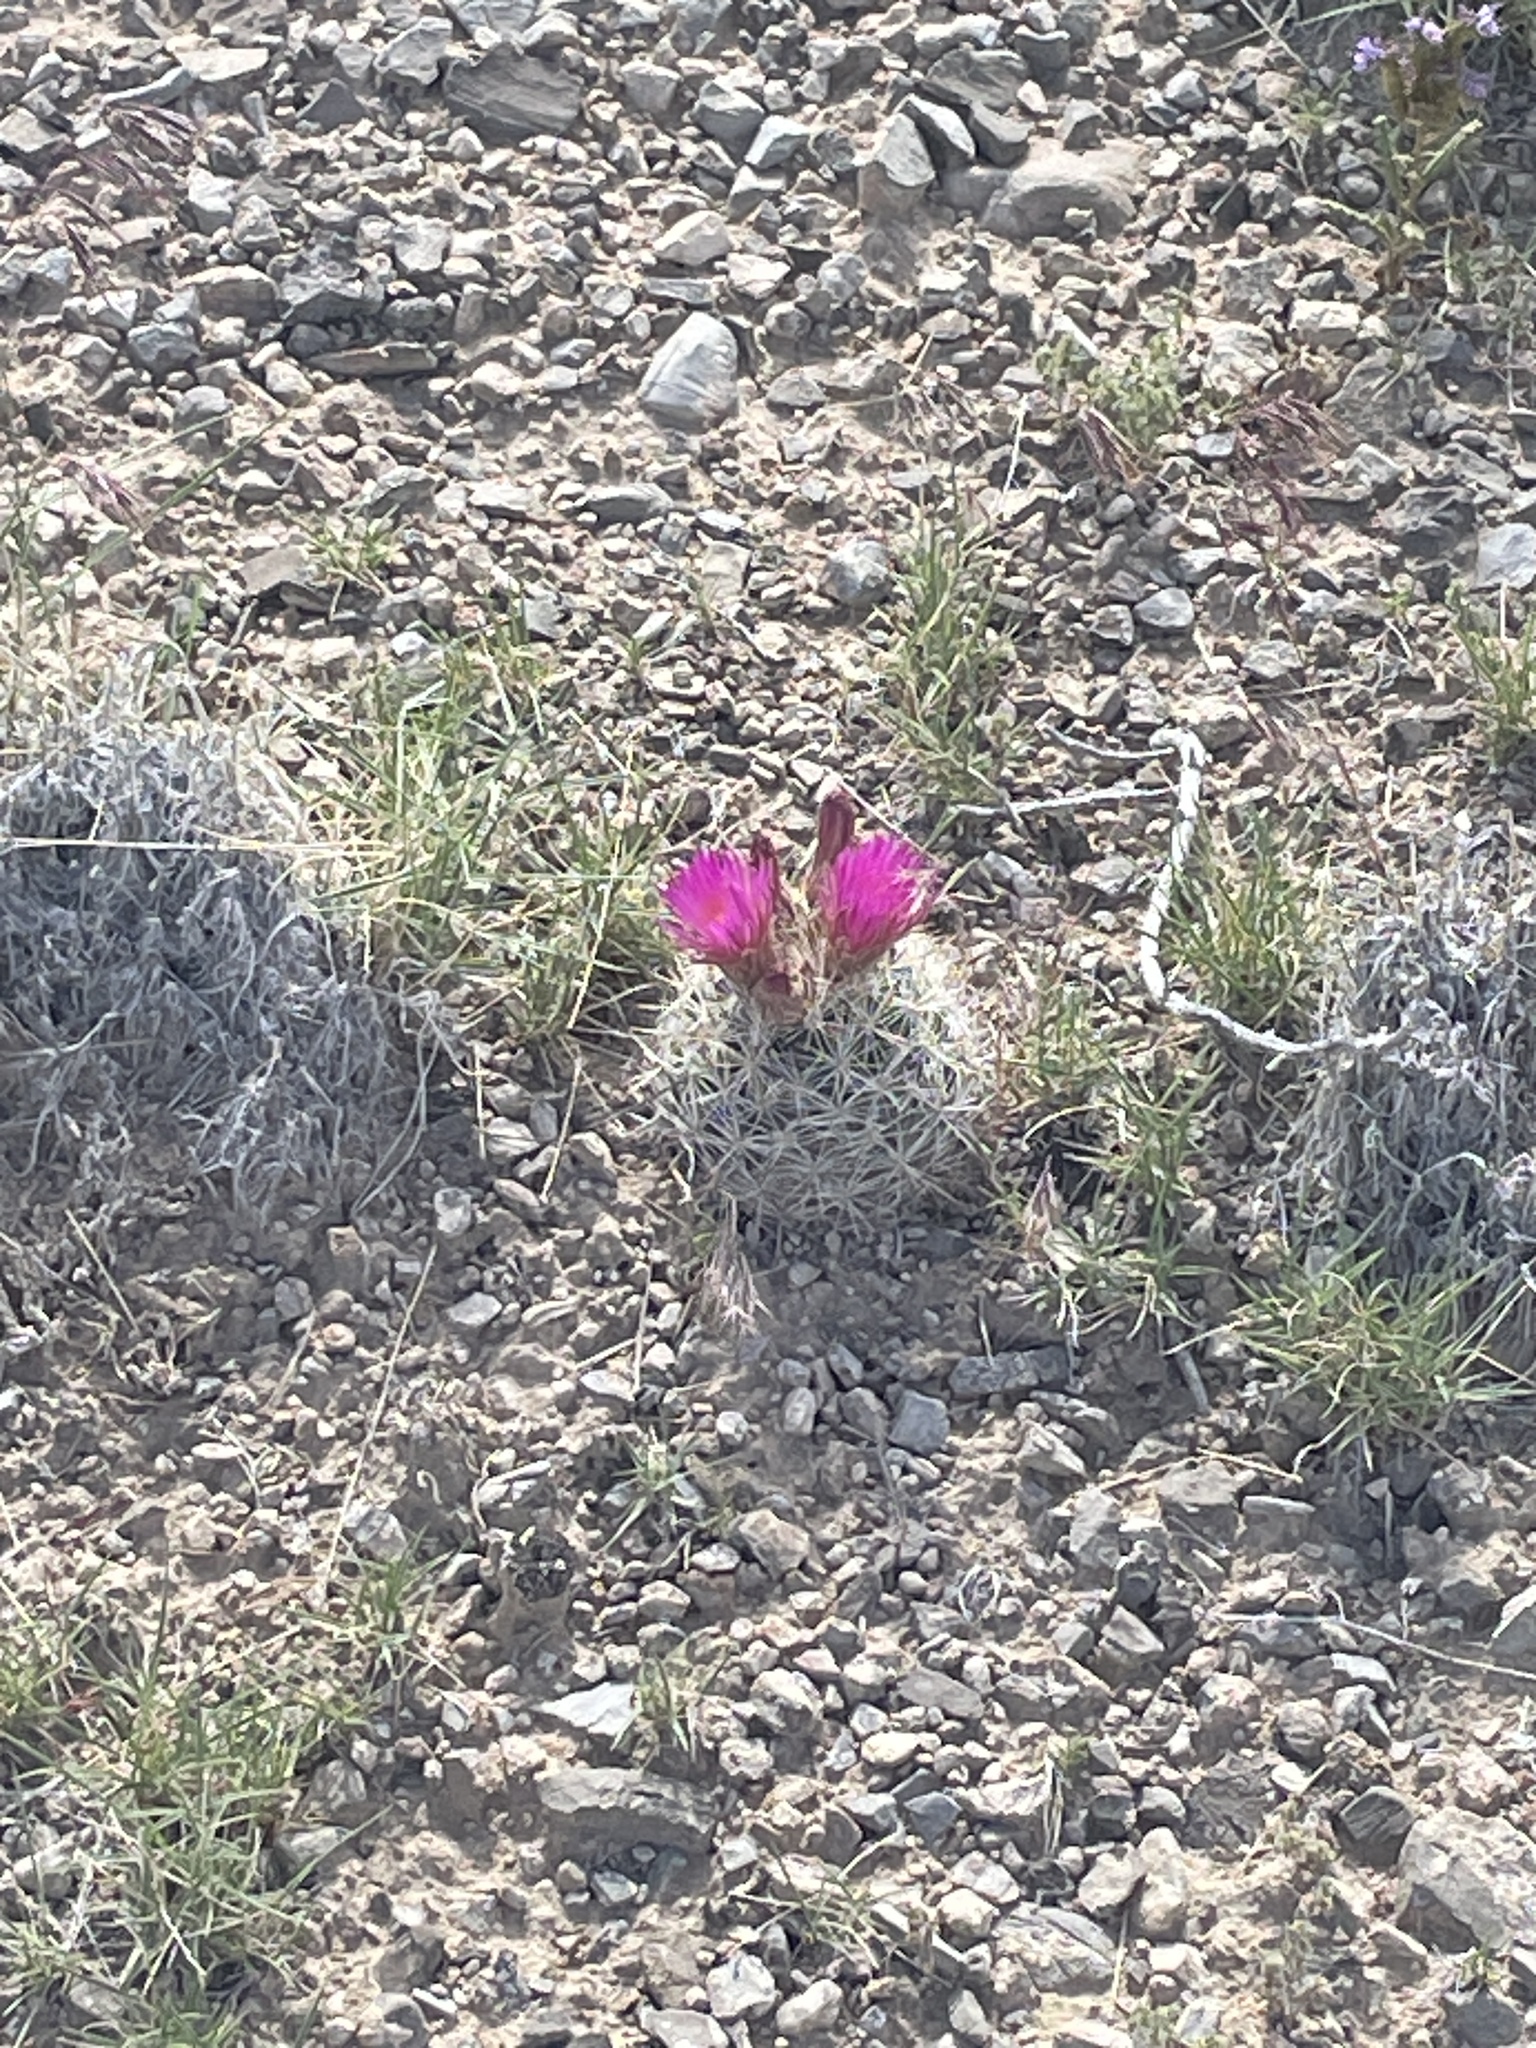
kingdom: Plantae
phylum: Tracheophyta
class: Magnoliopsida
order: Caryophyllales
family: Cactaceae
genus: Pelecyphora
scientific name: Pelecyphora vivipara
